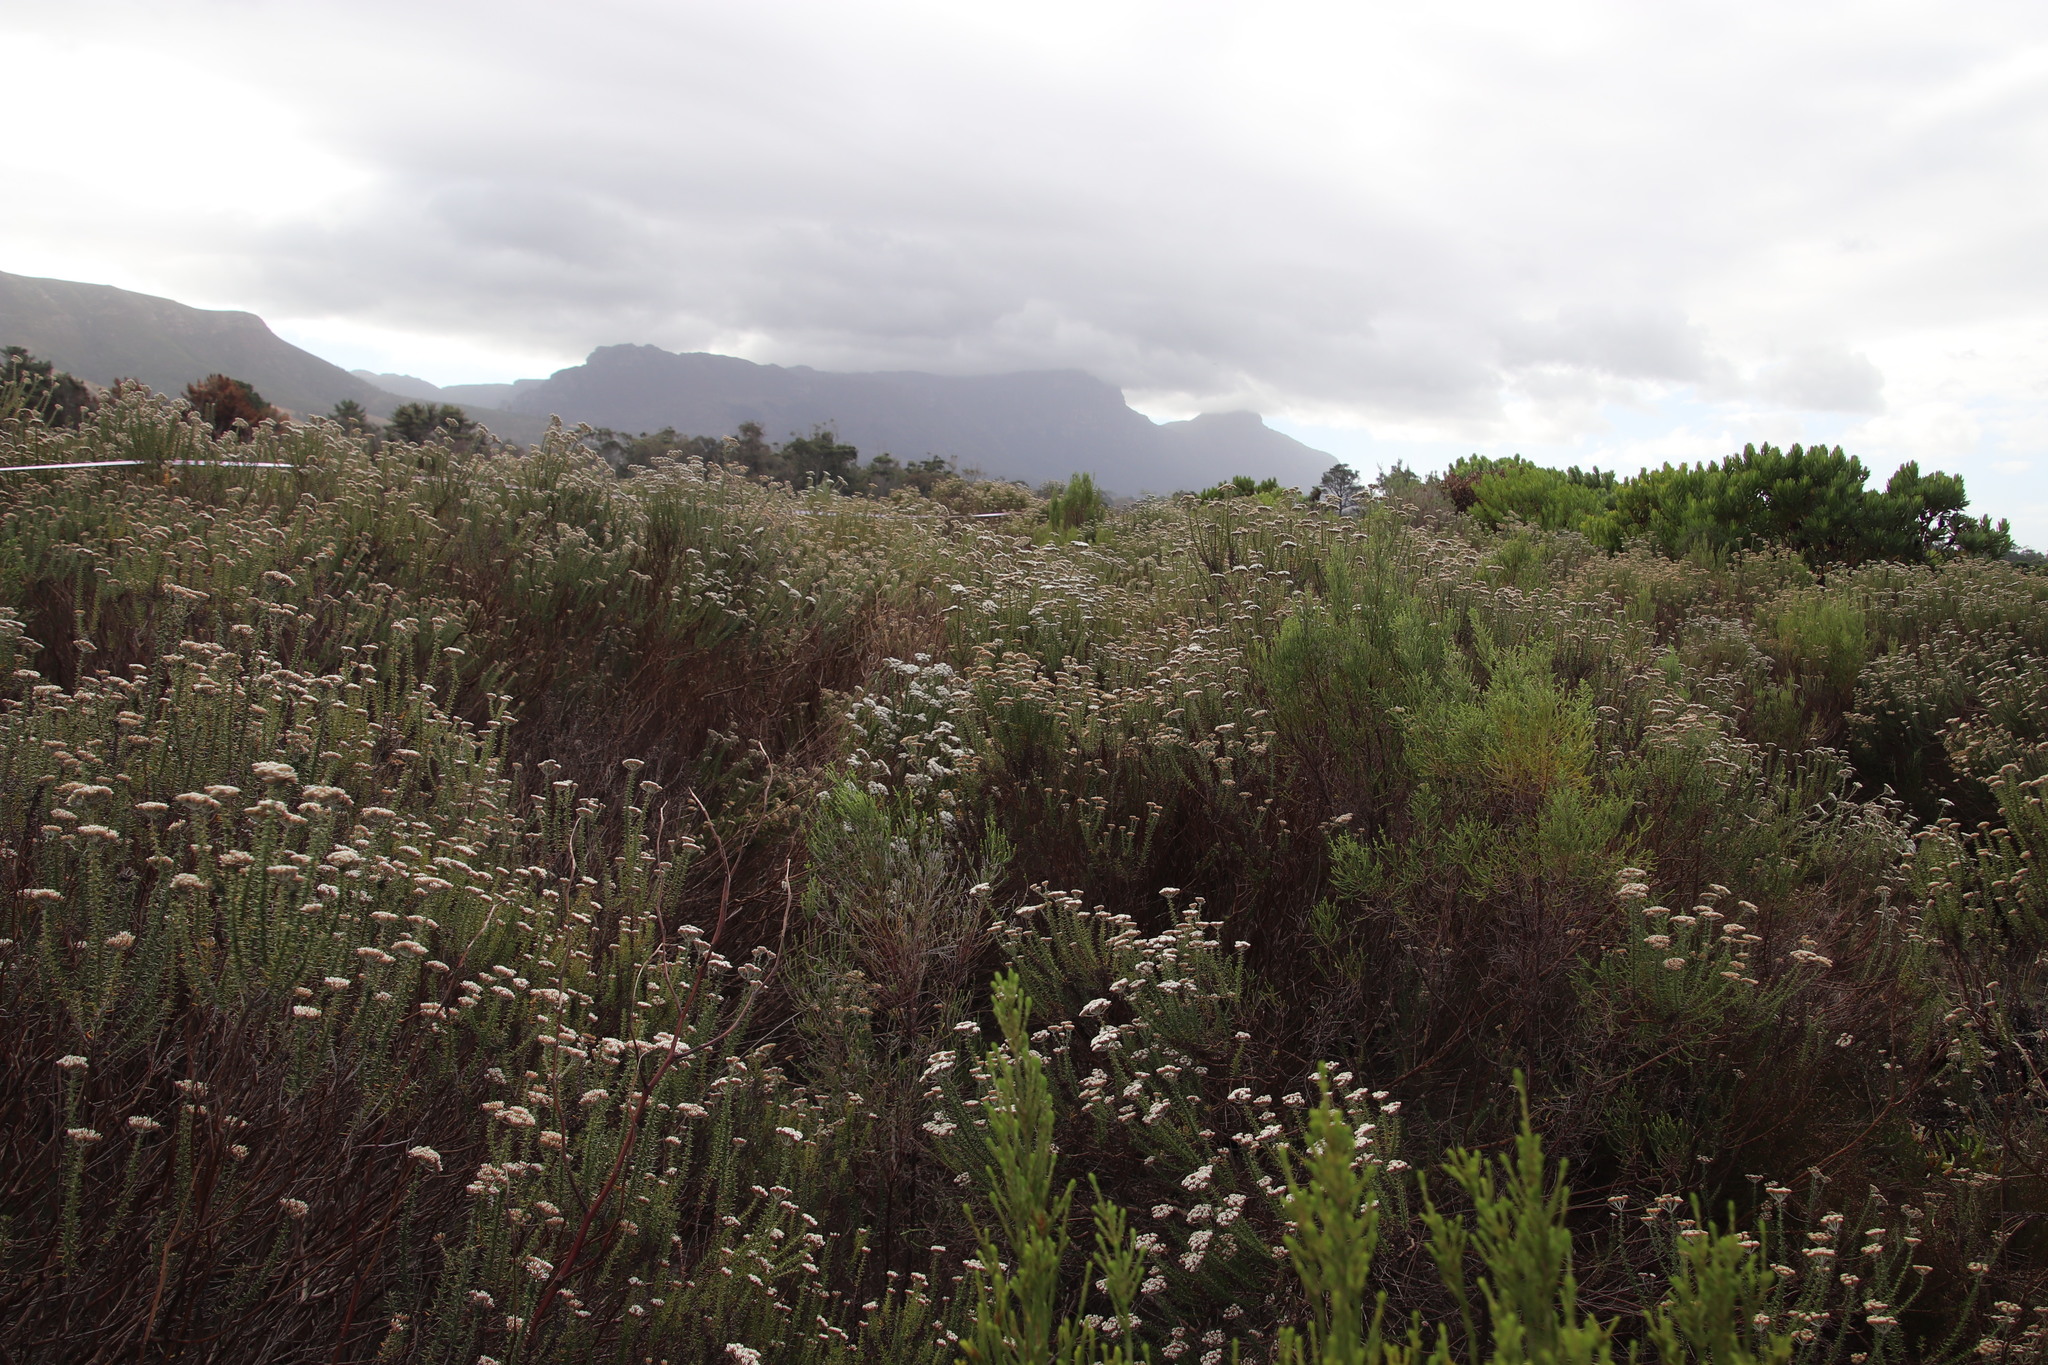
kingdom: Plantae
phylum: Tracheophyta
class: Magnoliopsida
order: Asterales
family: Asteraceae
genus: Metalasia
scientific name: Metalasia densa
